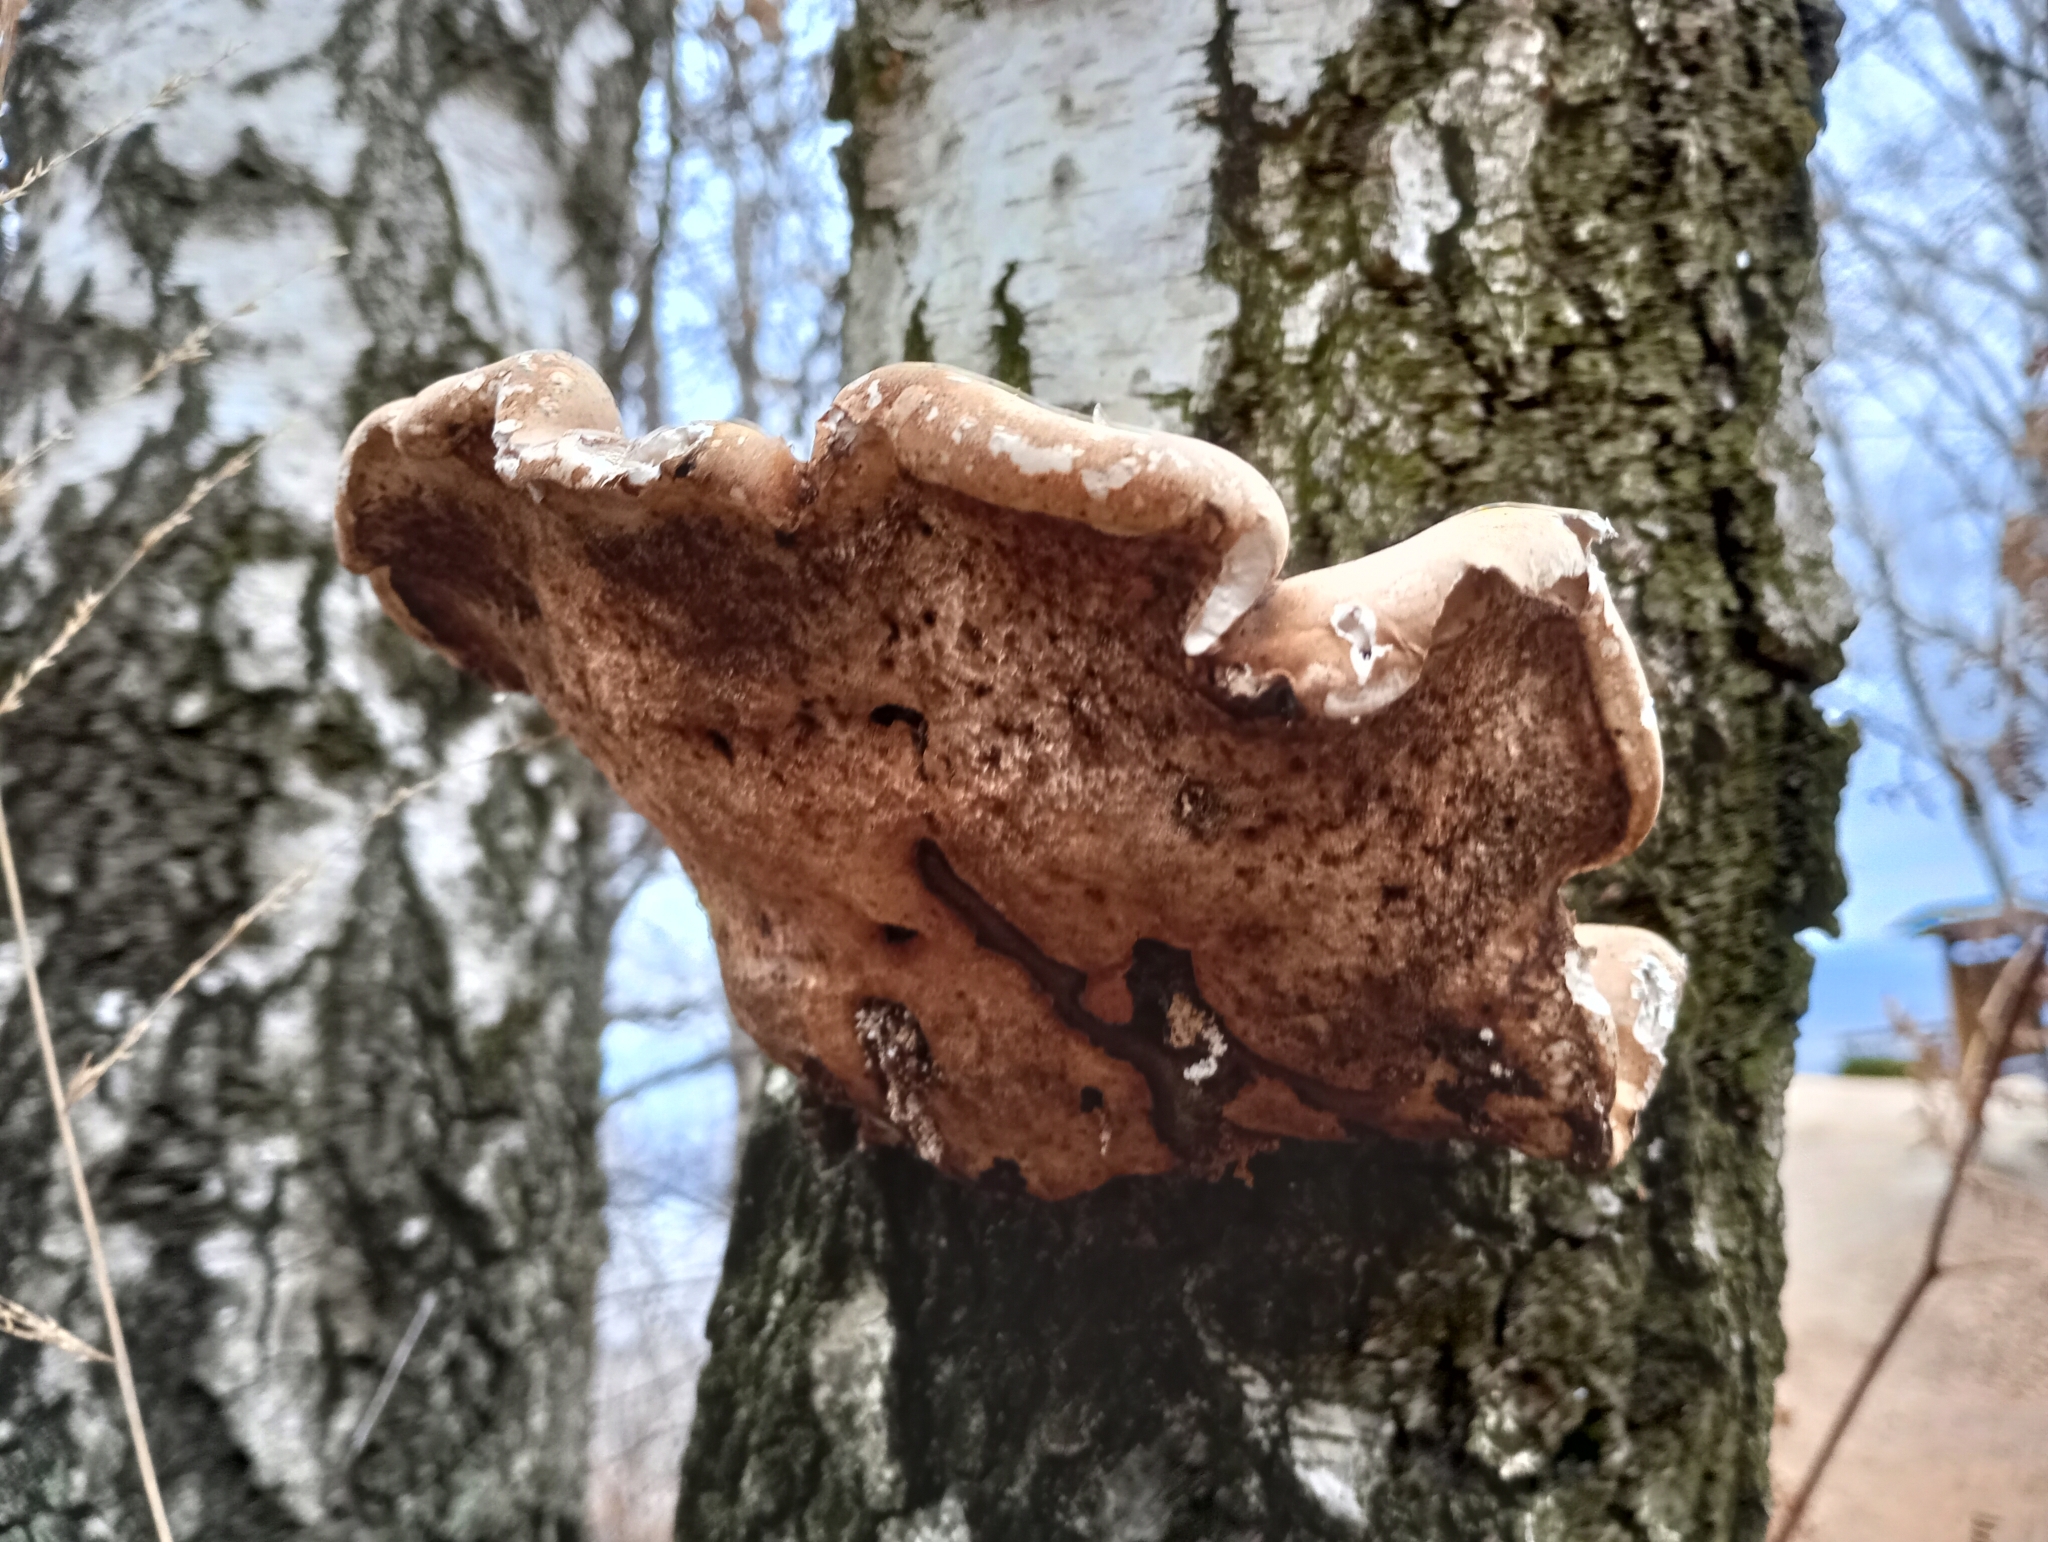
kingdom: Fungi
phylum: Basidiomycota
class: Agaricomycetes
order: Polyporales
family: Fomitopsidaceae
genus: Fomitopsis
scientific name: Fomitopsis betulina
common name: Birch polypore
